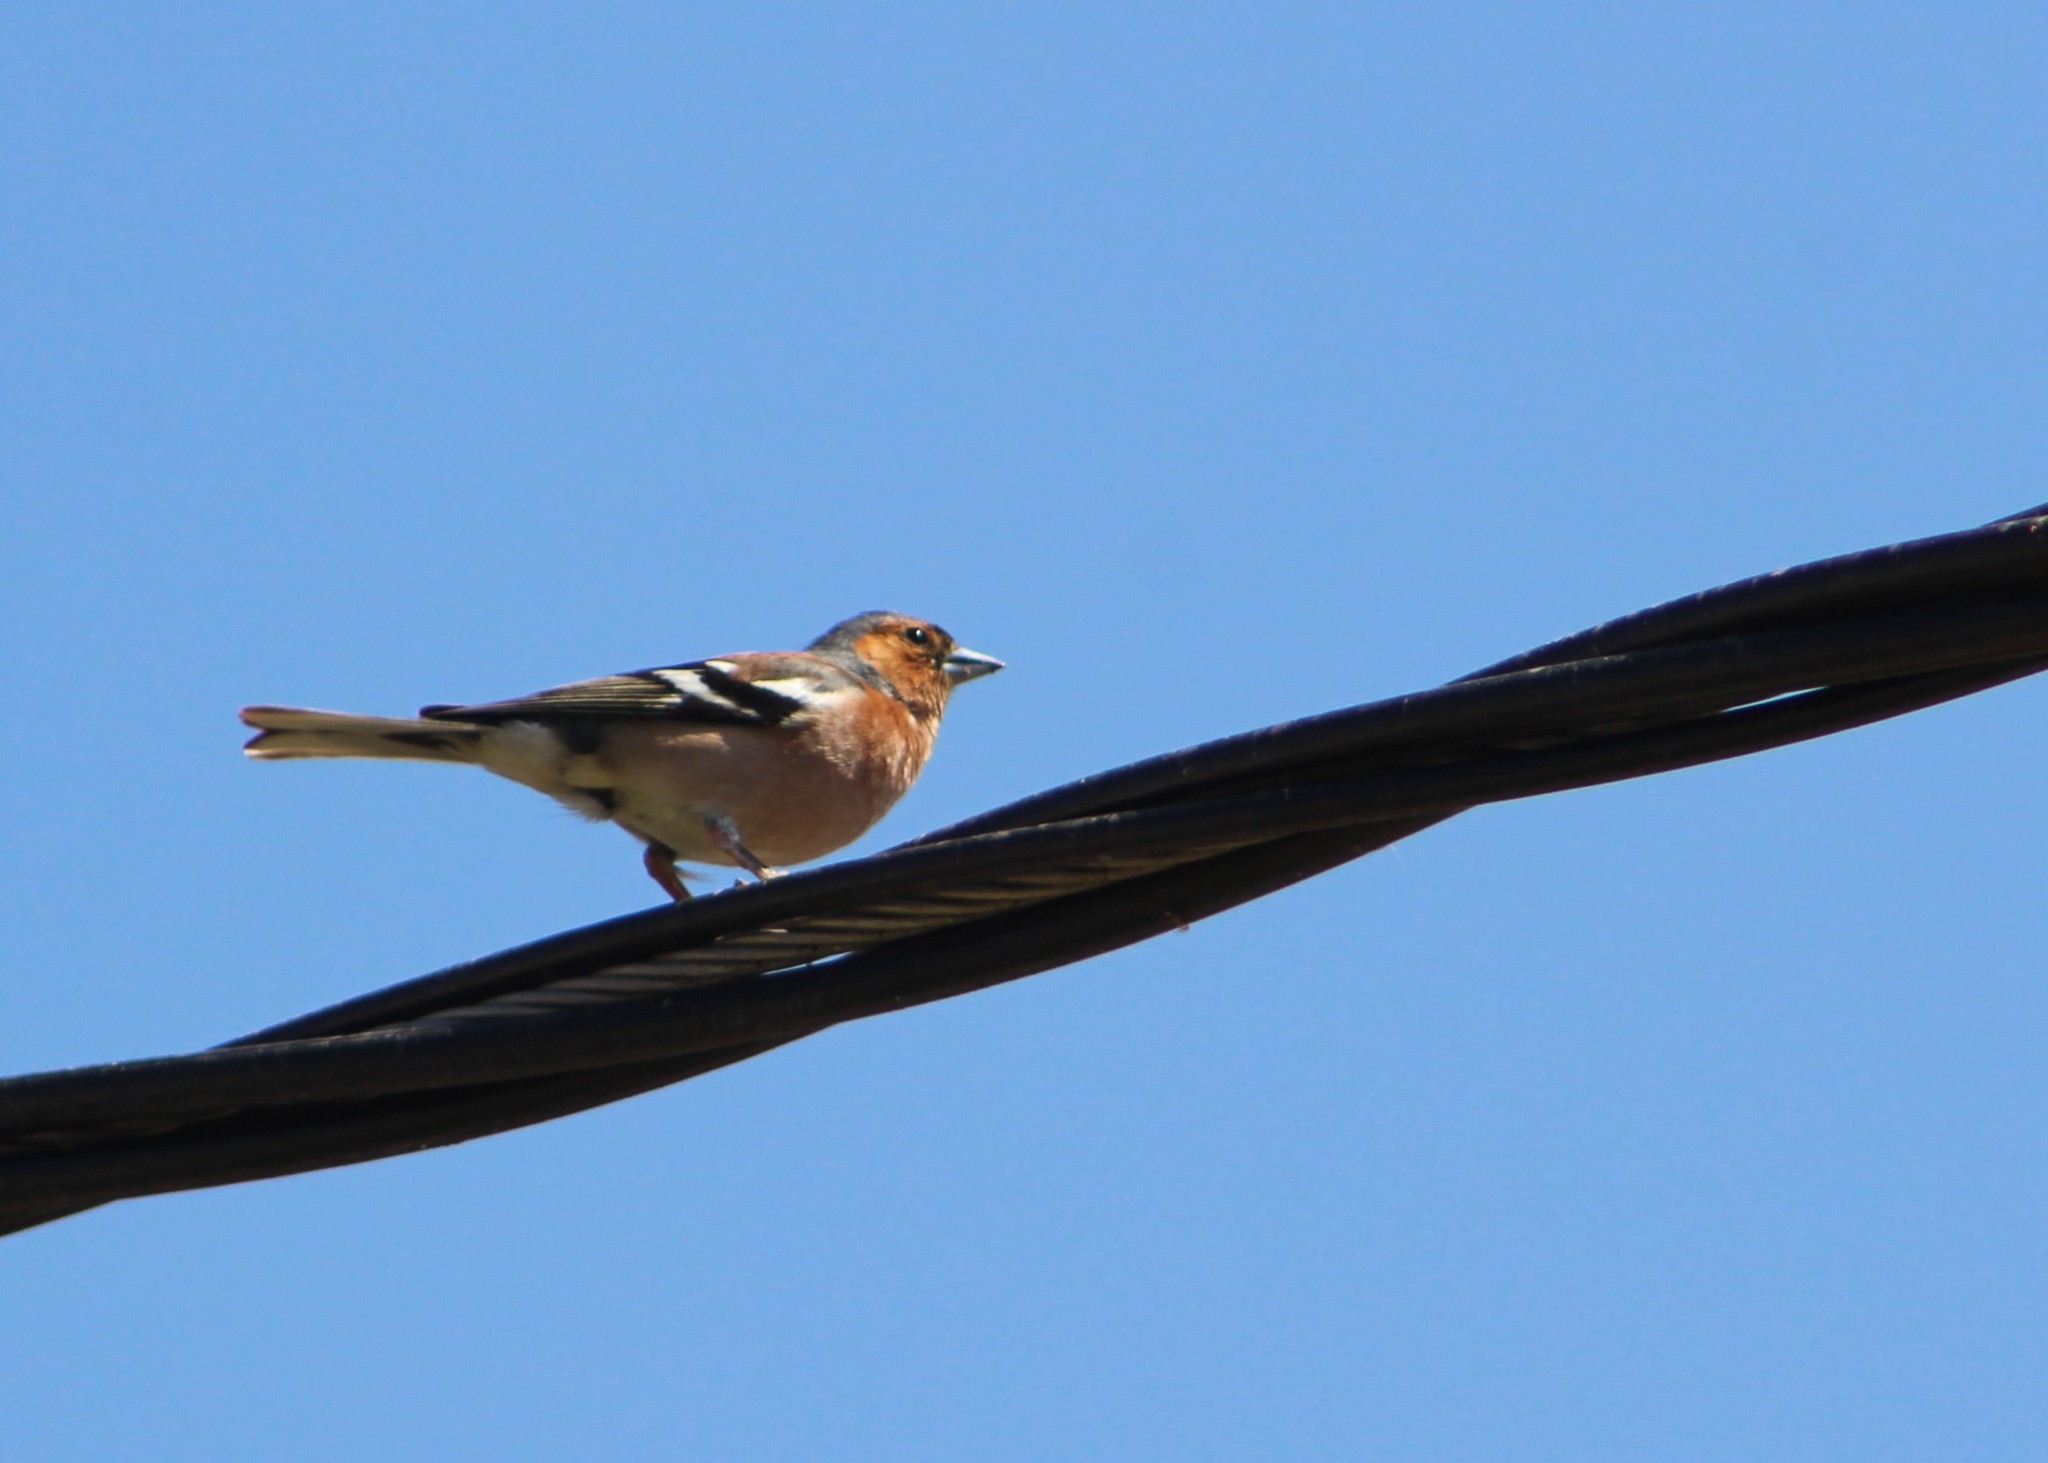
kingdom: Animalia
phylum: Chordata
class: Aves
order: Passeriformes
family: Fringillidae
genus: Fringilla
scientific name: Fringilla coelebs
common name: Common chaffinch
